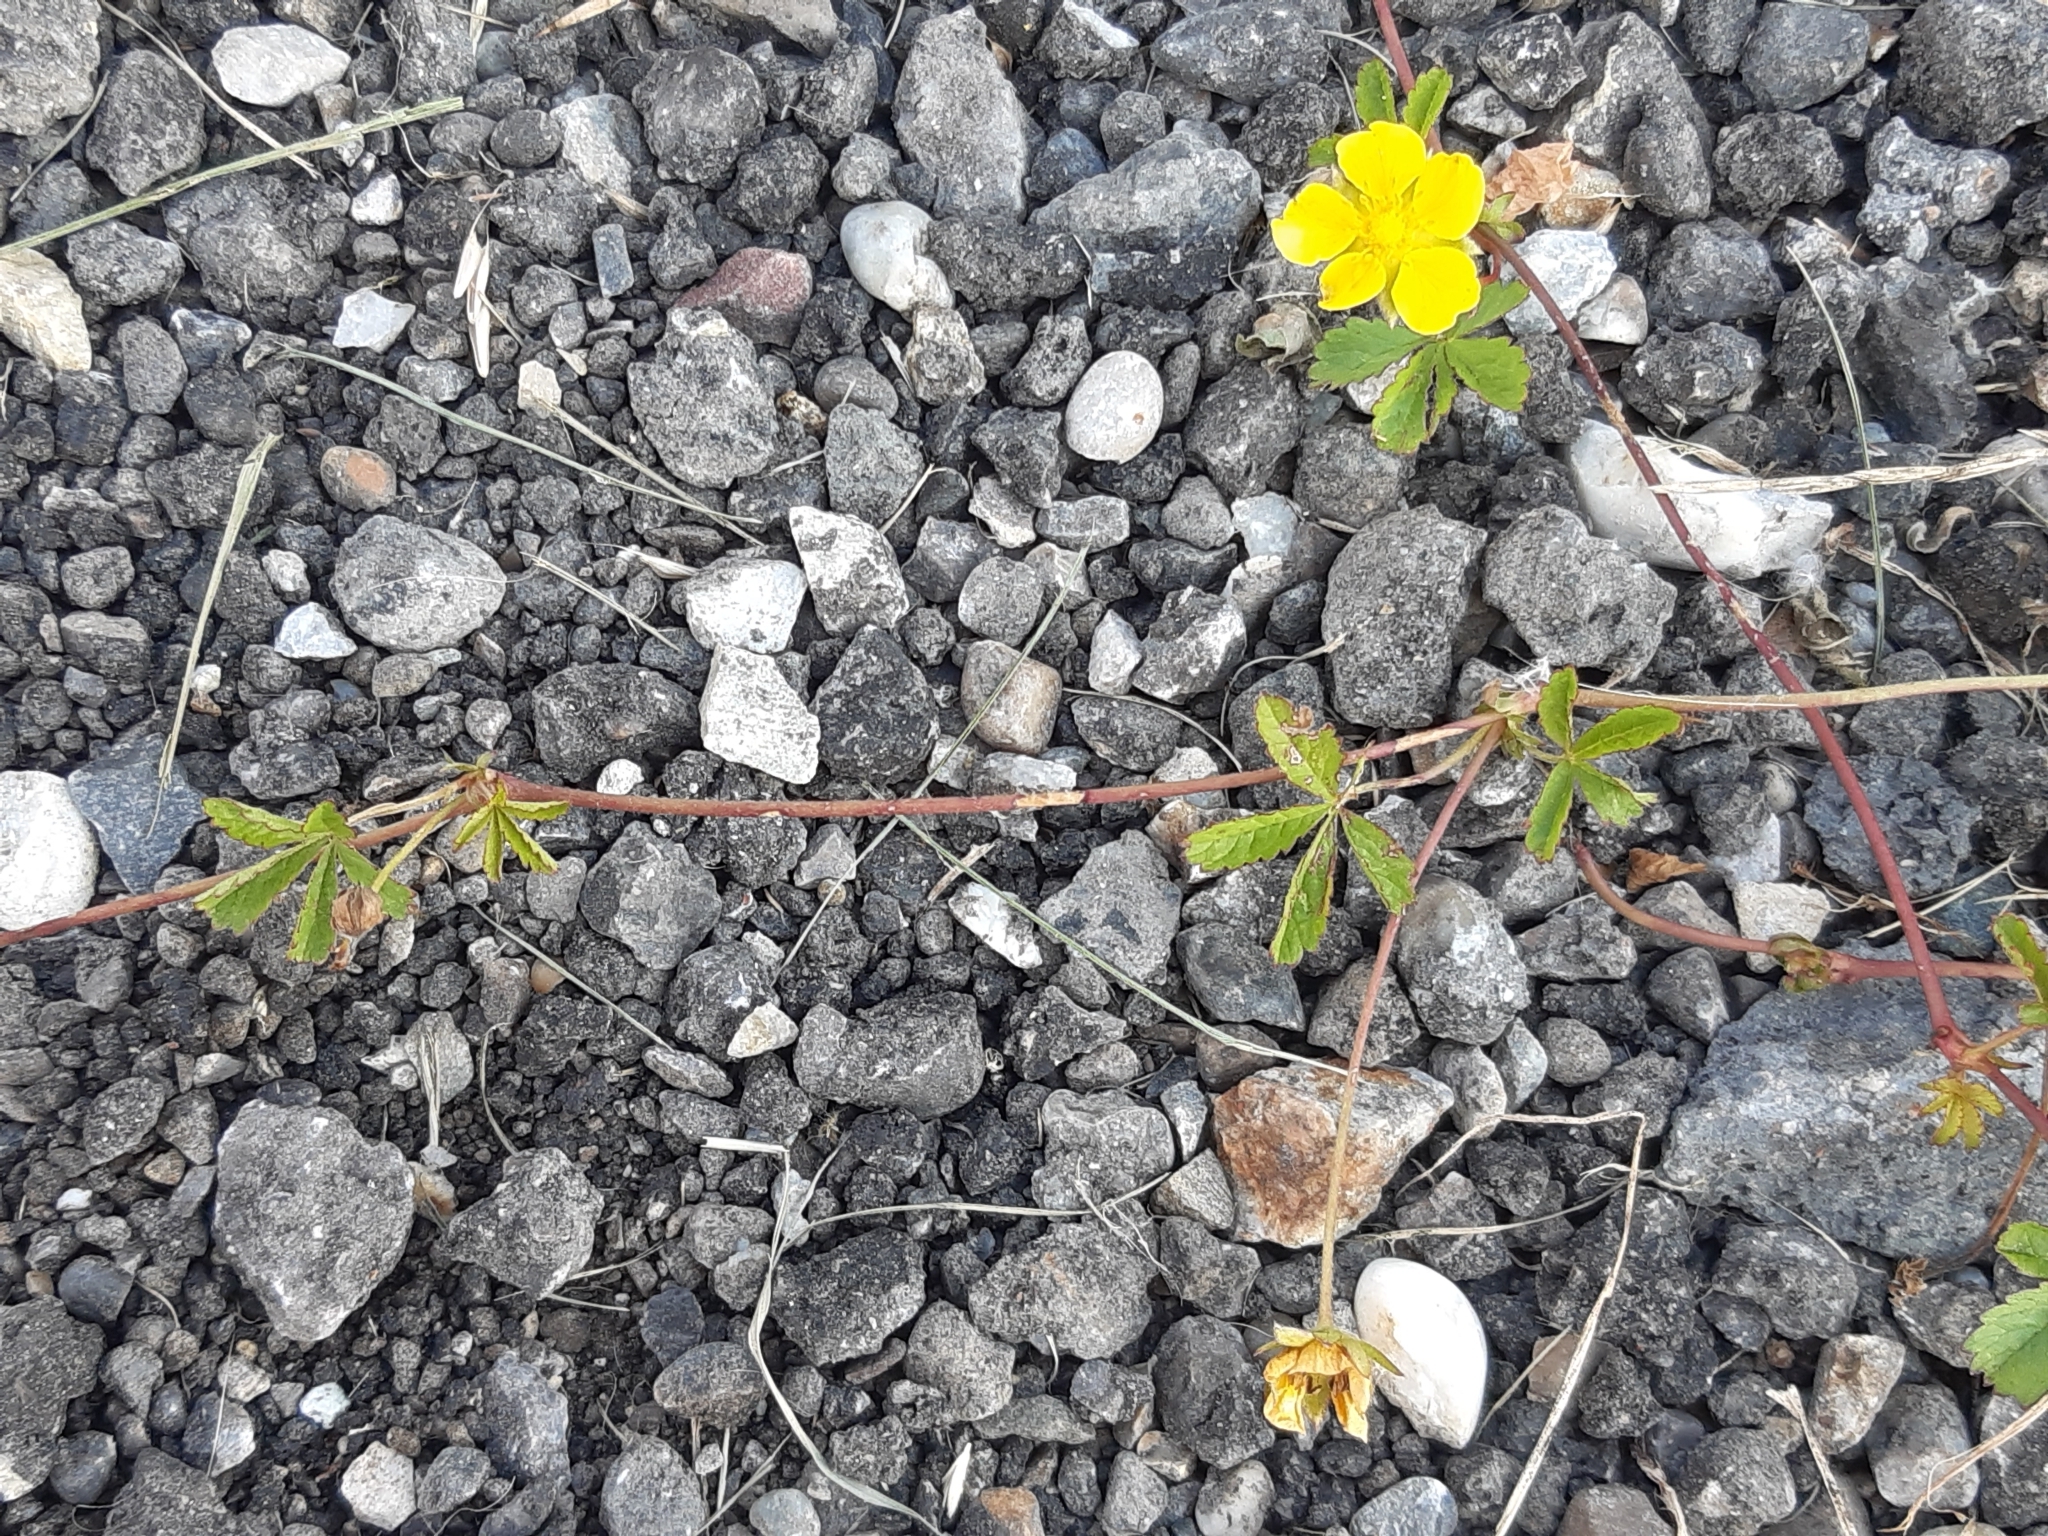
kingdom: Plantae
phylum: Tracheophyta
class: Magnoliopsida
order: Rosales
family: Rosaceae
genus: Potentilla
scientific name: Potentilla reptans
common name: Creeping cinquefoil
